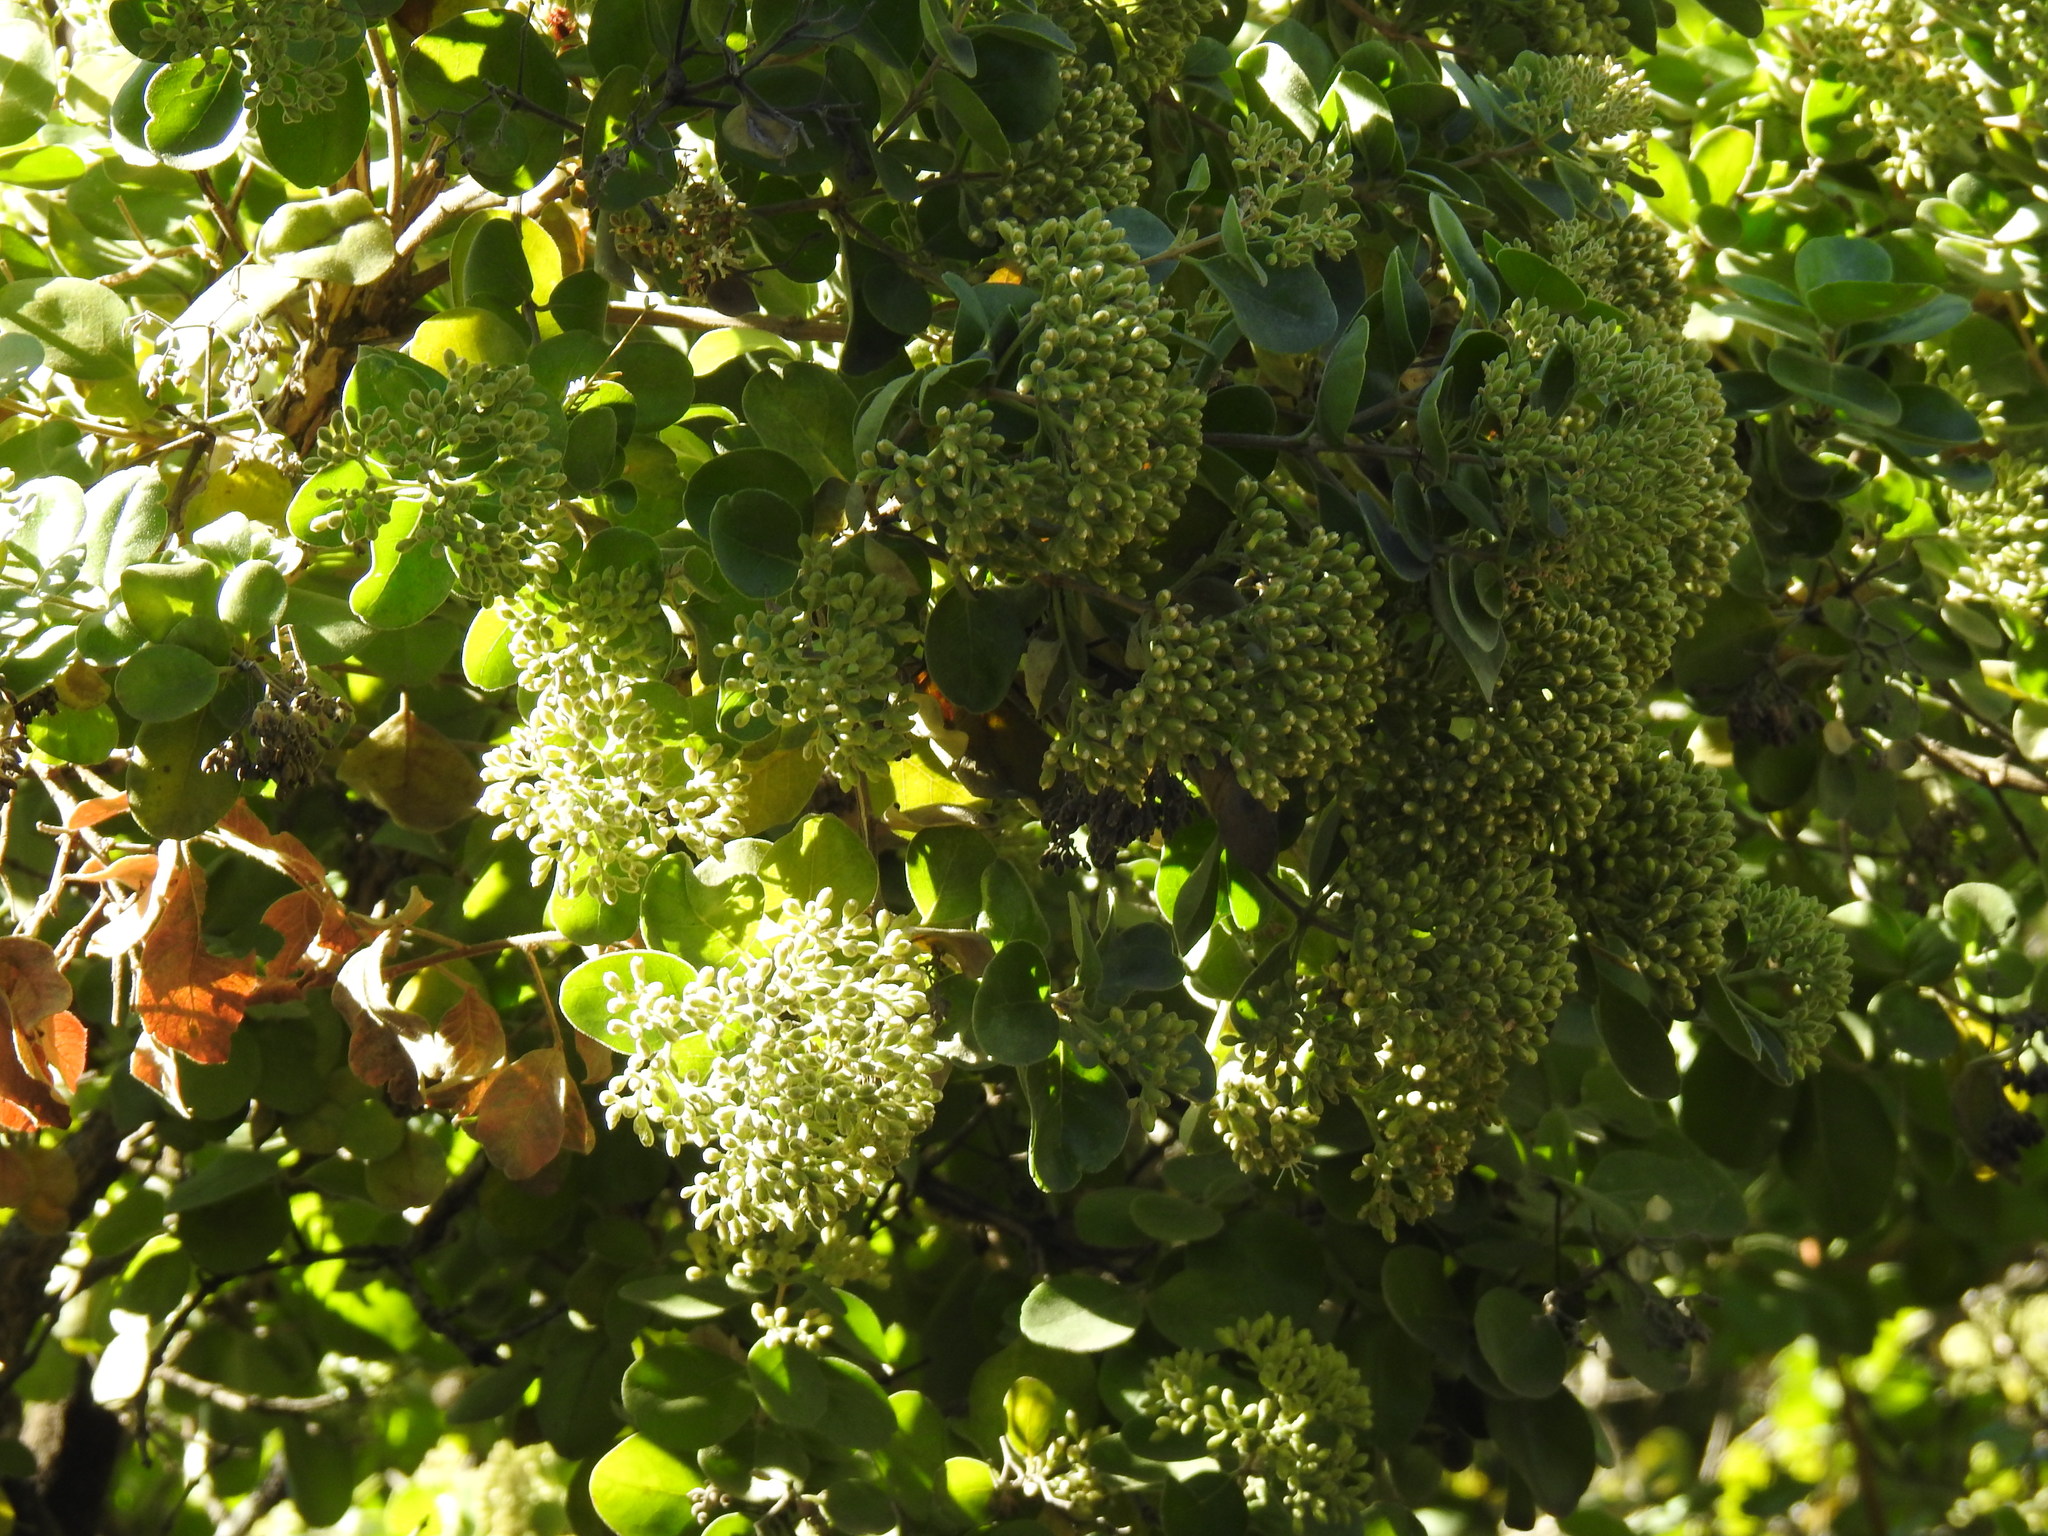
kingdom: Plantae
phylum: Tracheophyta
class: Magnoliopsida
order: Lamiales
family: Stilbaceae
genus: Nuxia
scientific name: Nuxia congesta
